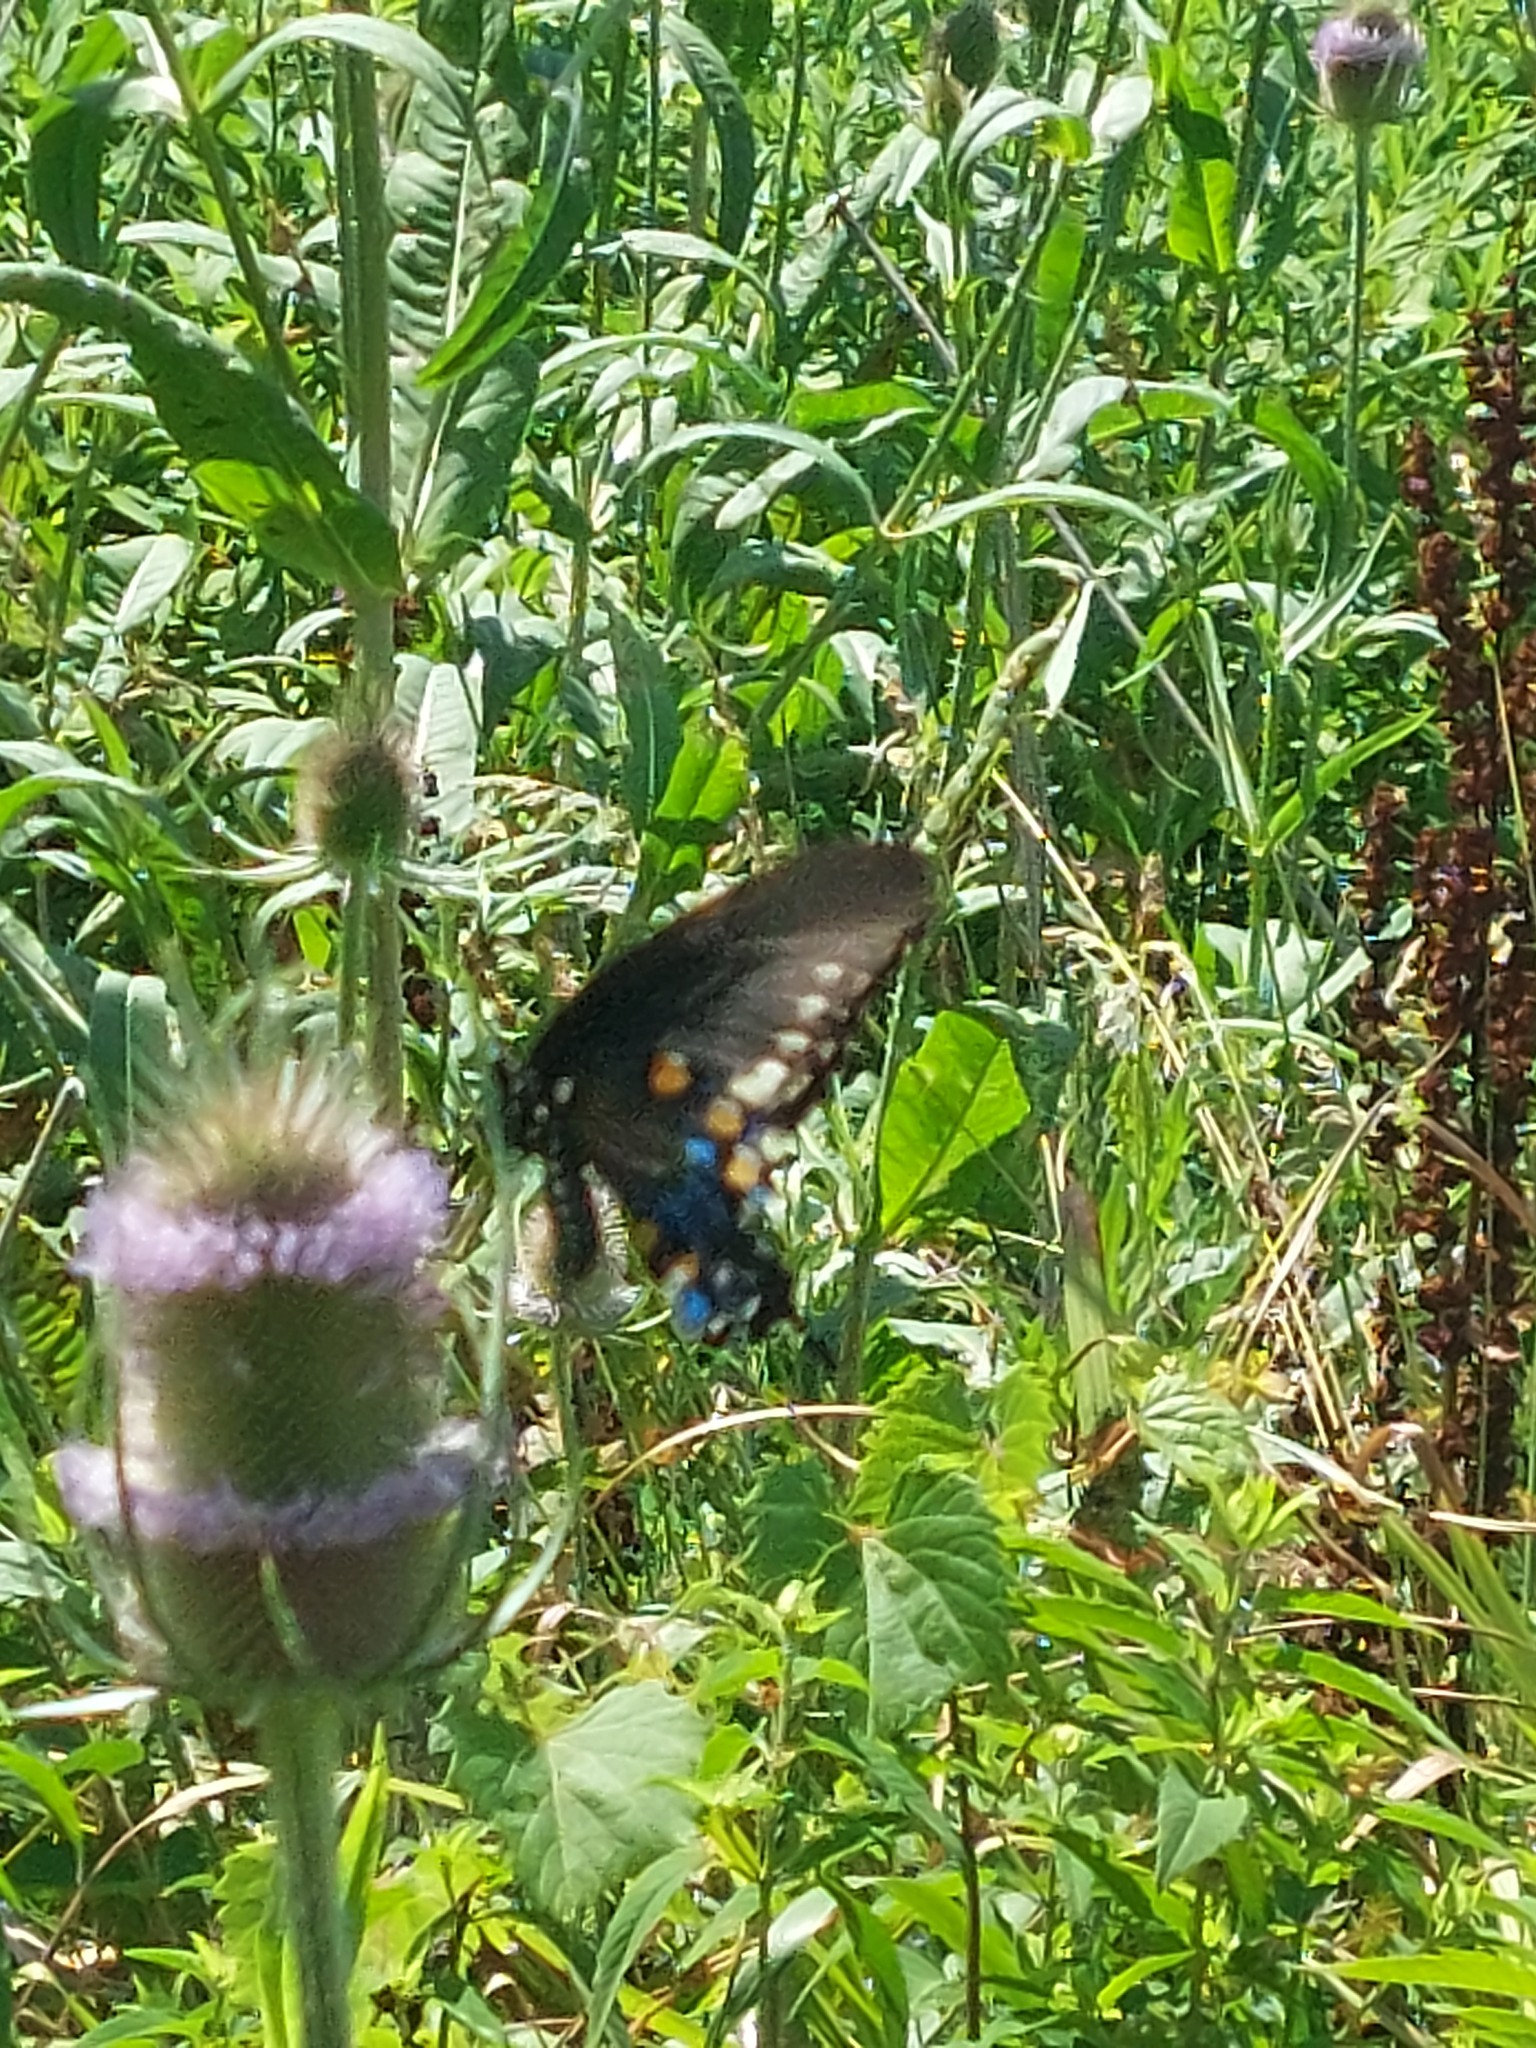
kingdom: Animalia
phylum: Arthropoda
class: Insecta
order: Lepidoptera
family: Papilionidae
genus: Battus
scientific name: Battus philenor
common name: Pipevine swallowtail
